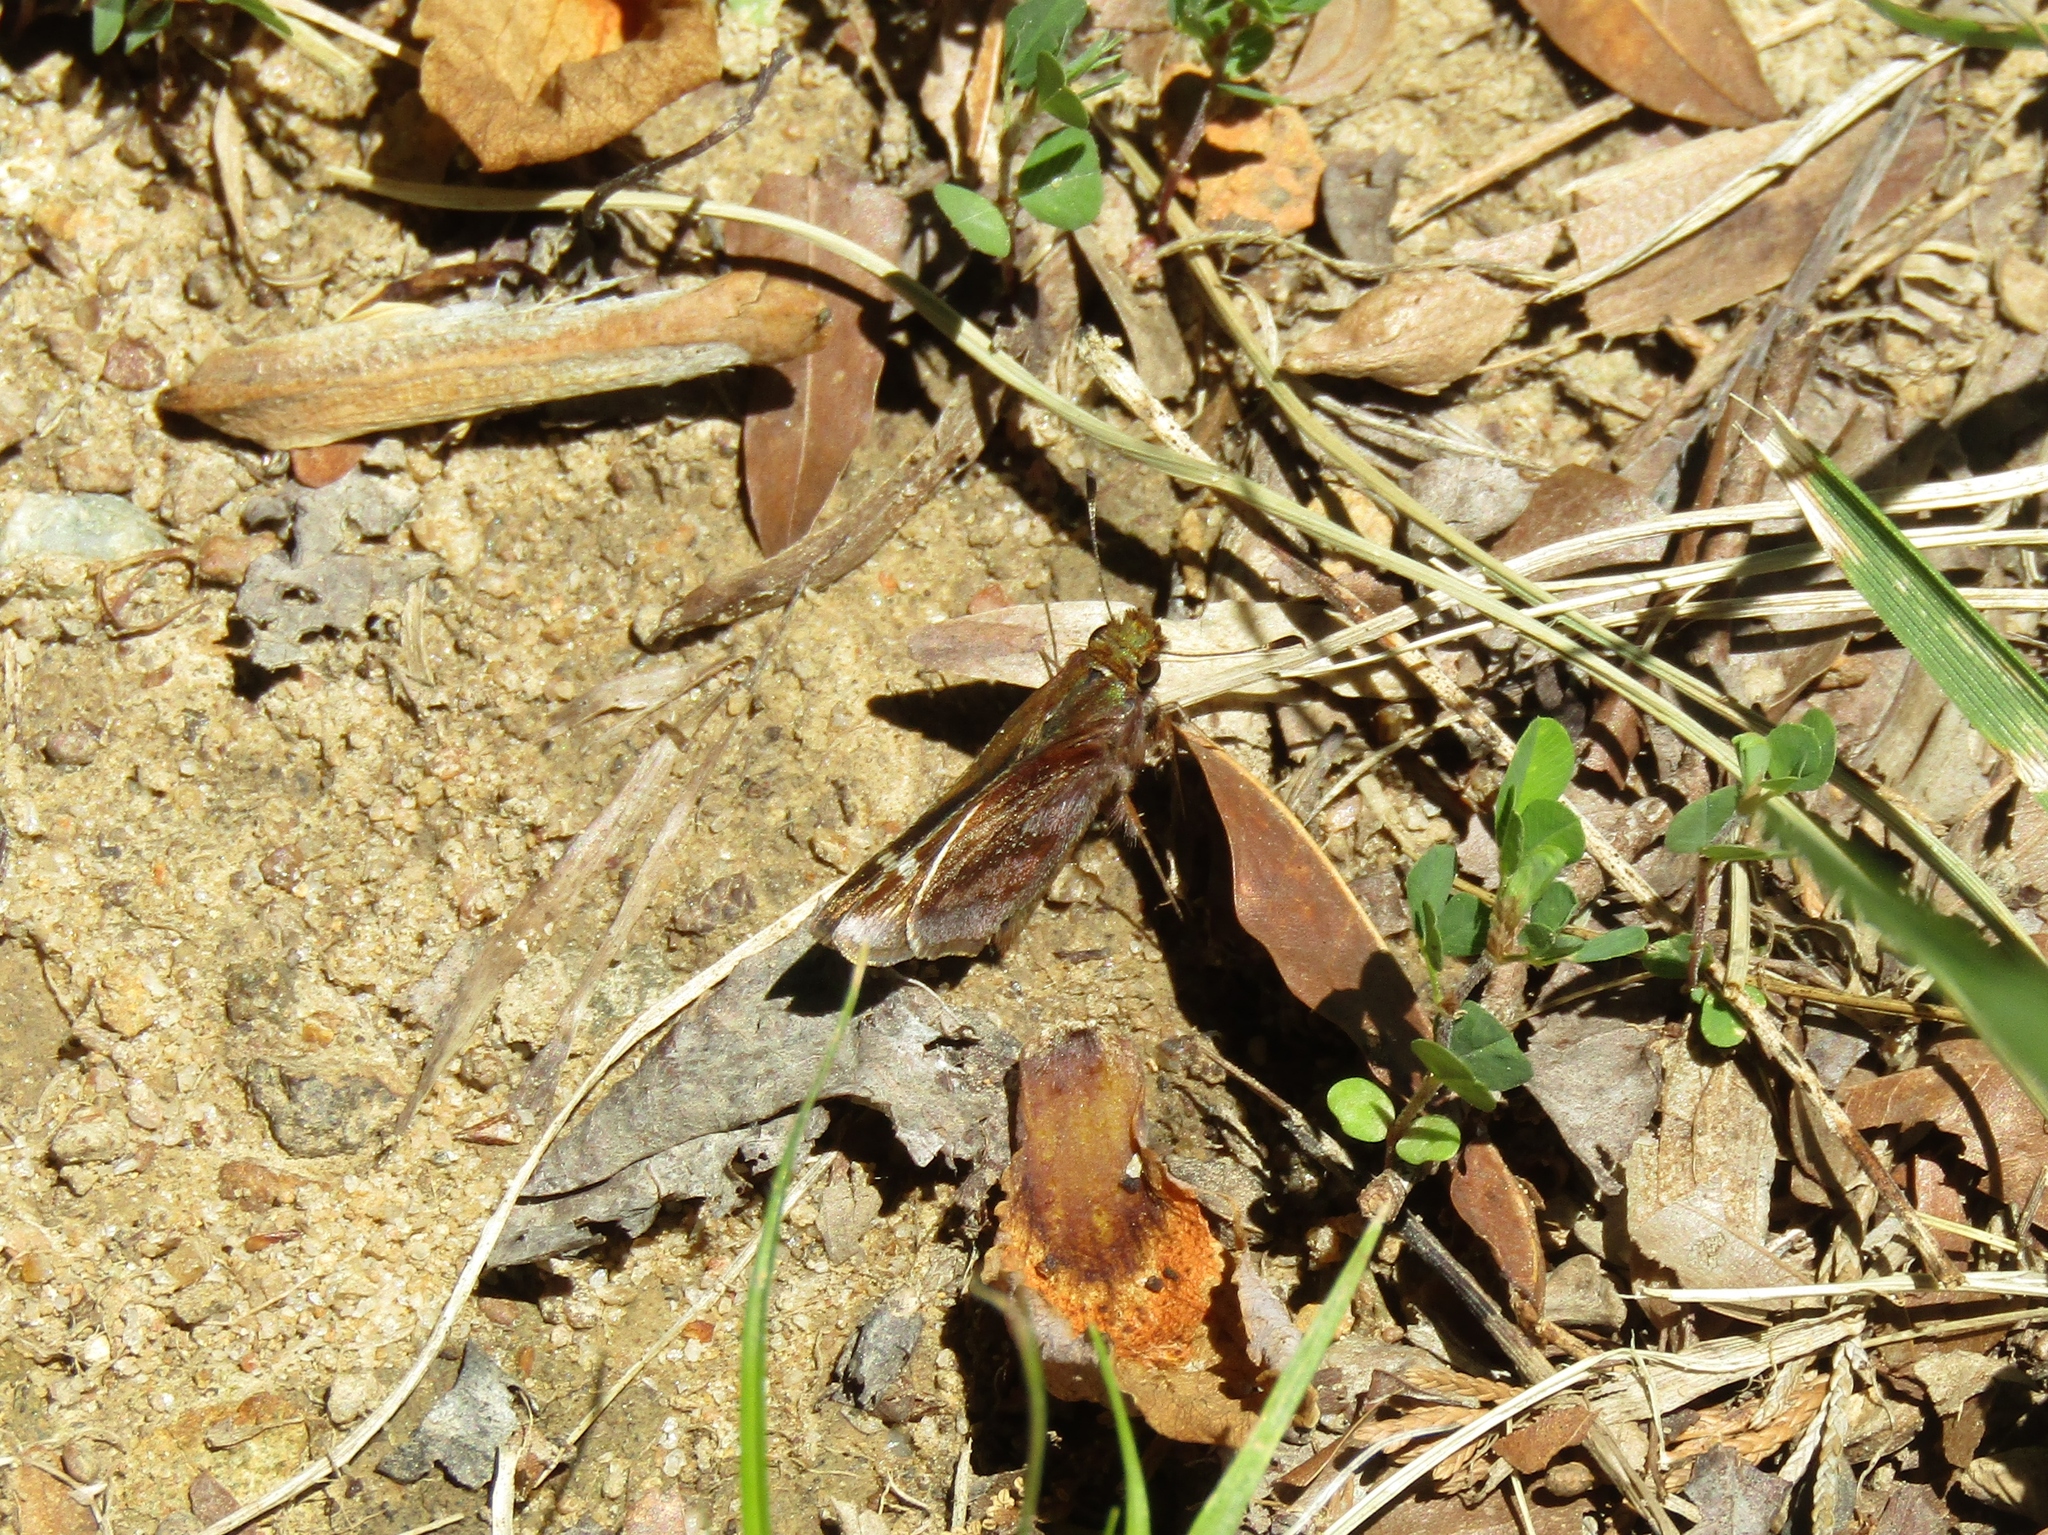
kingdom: Animalia
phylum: Arthropoda
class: Insecta
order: Lepidoptera
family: Hesperiidae
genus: Lon
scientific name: Lon zabulon
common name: Zabulon skipper
